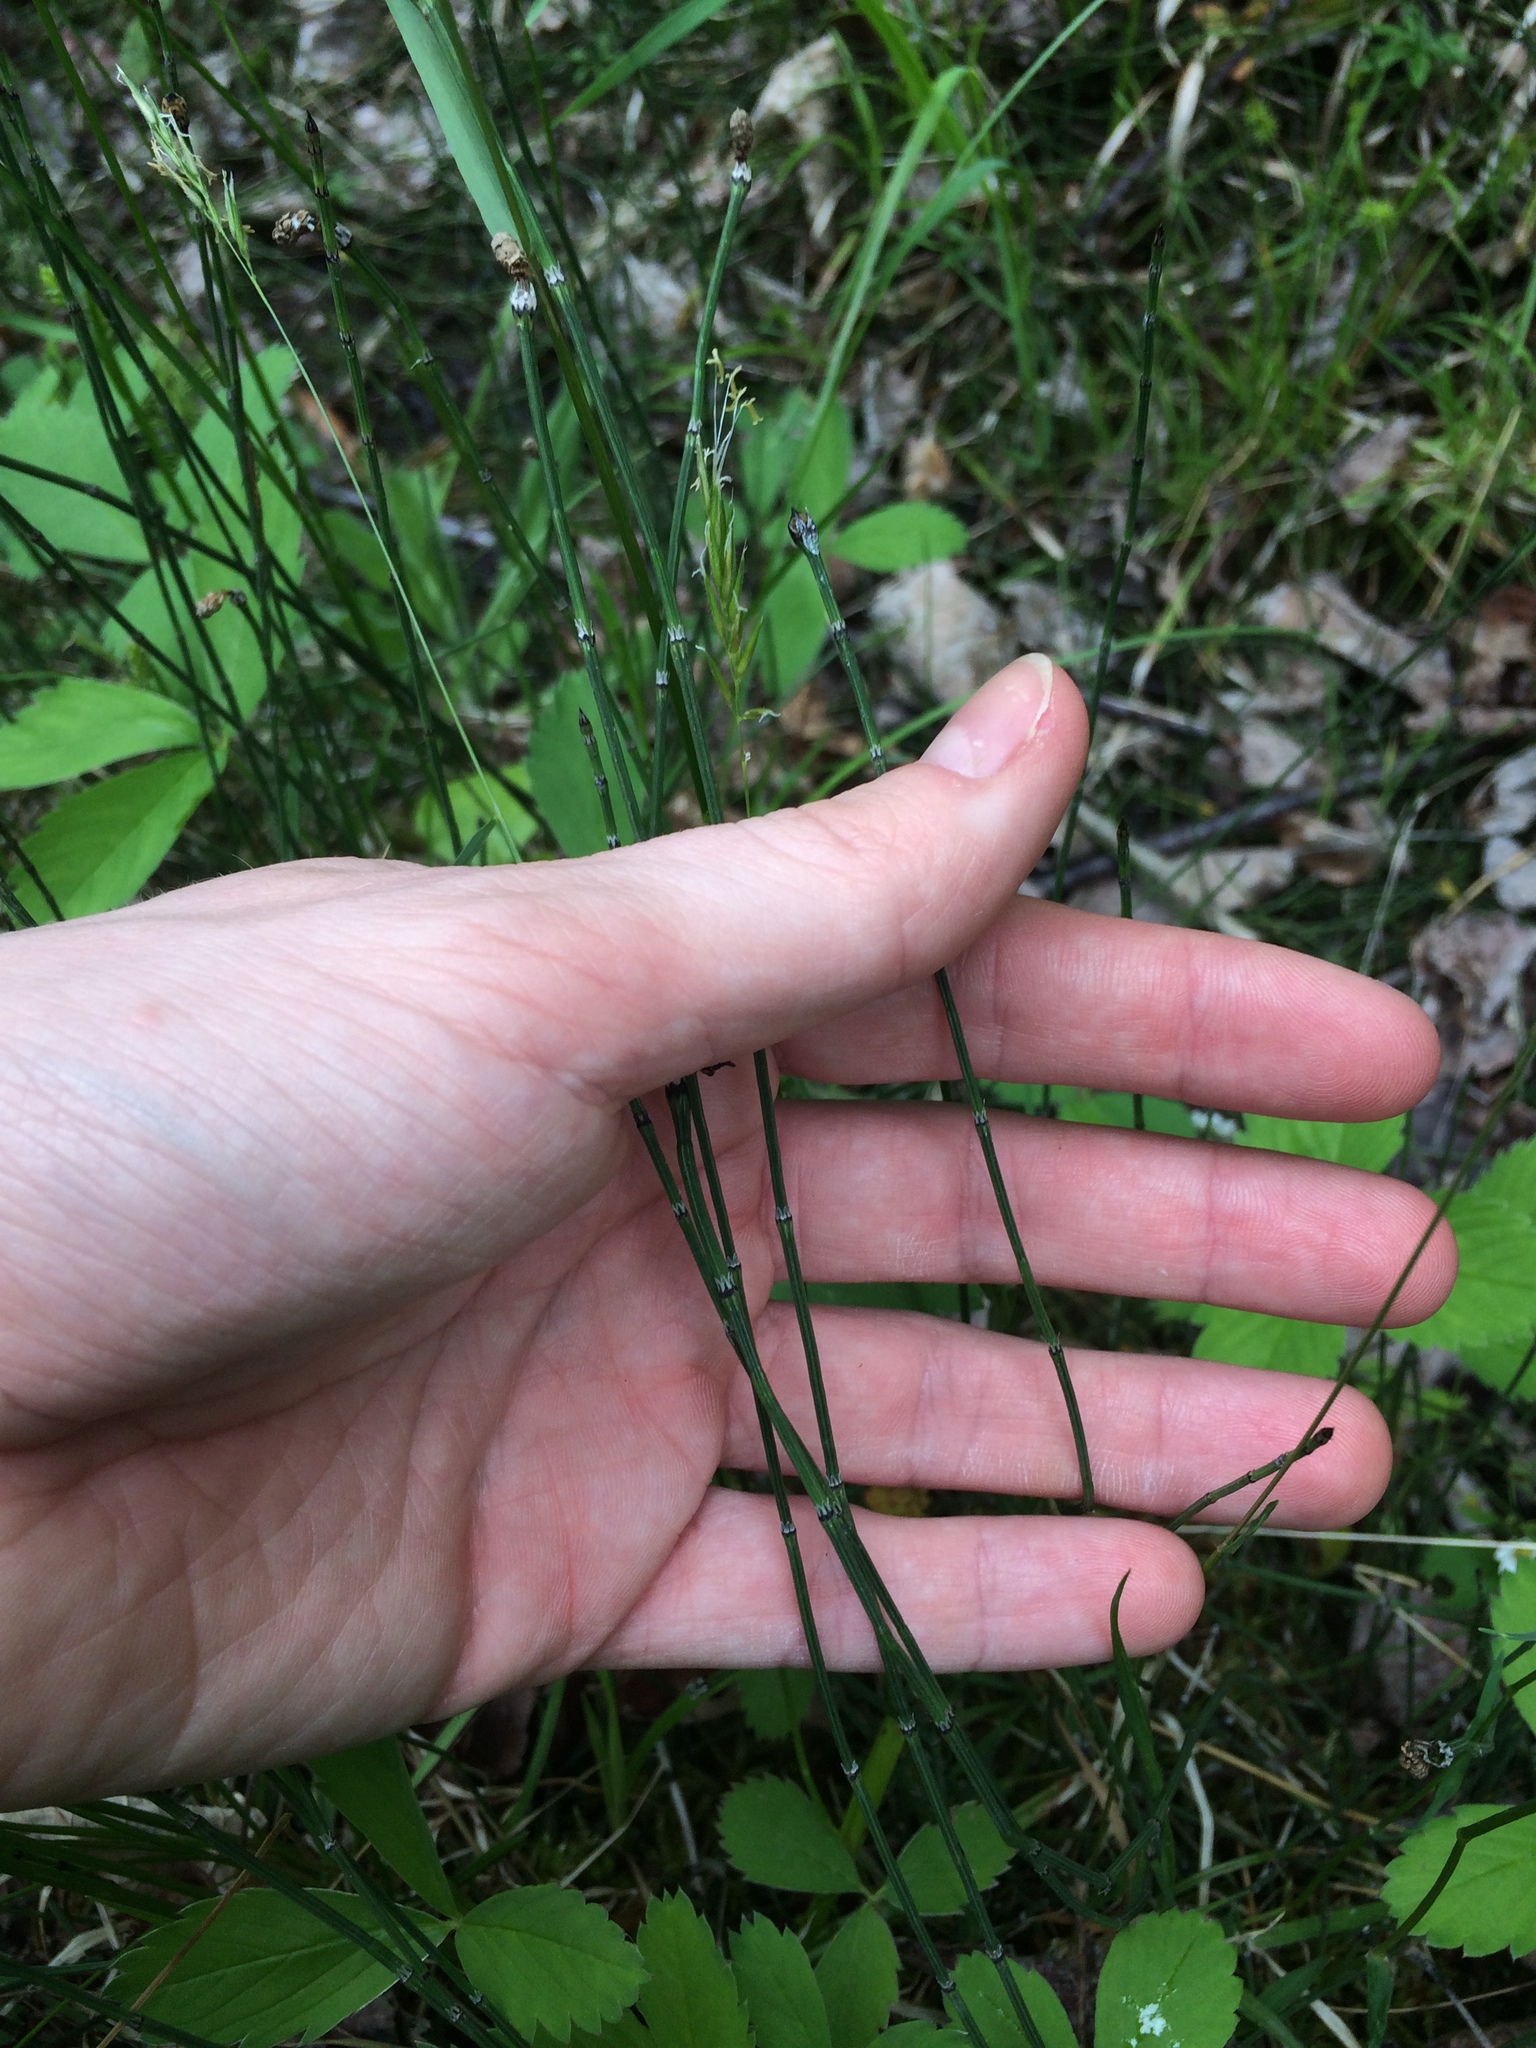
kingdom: Plantae
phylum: Tracheophyta
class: Polypodiopsida
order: Equisetales
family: Equisetaceae
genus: Equisetum
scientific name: Equisetum variegatum
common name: Variegated horsetail
